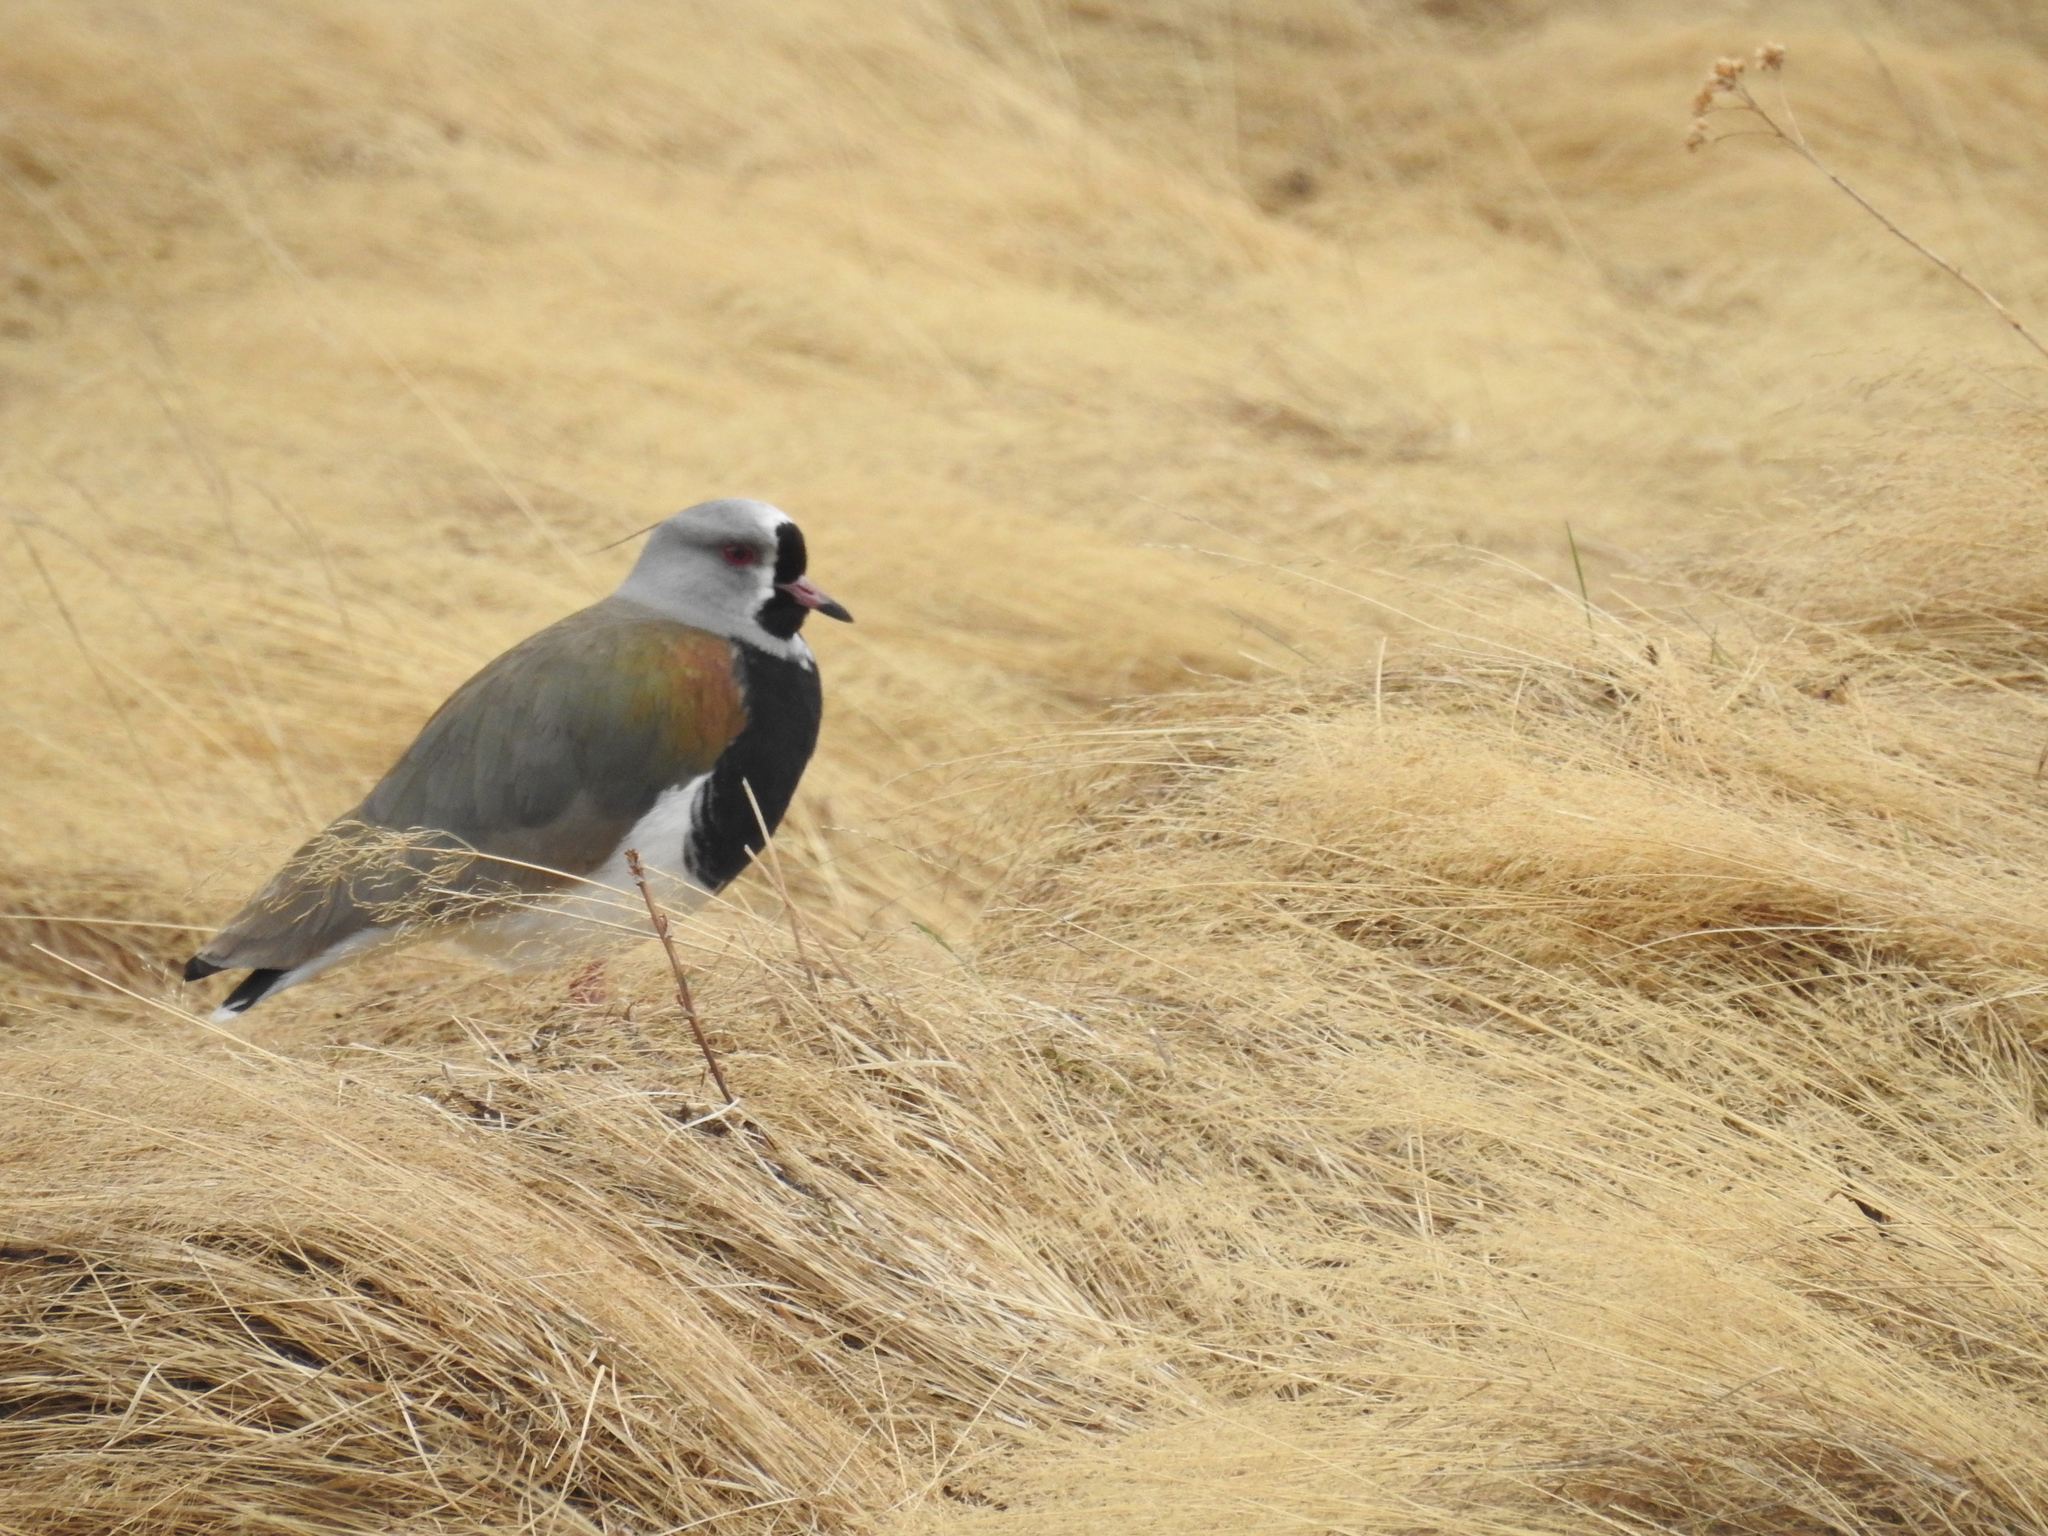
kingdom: Animalia
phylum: Chordata
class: Aves
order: Charadriiformes
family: Charadriidae
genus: Vanellus
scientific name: Vanellus chilensis
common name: Southern lapwing
